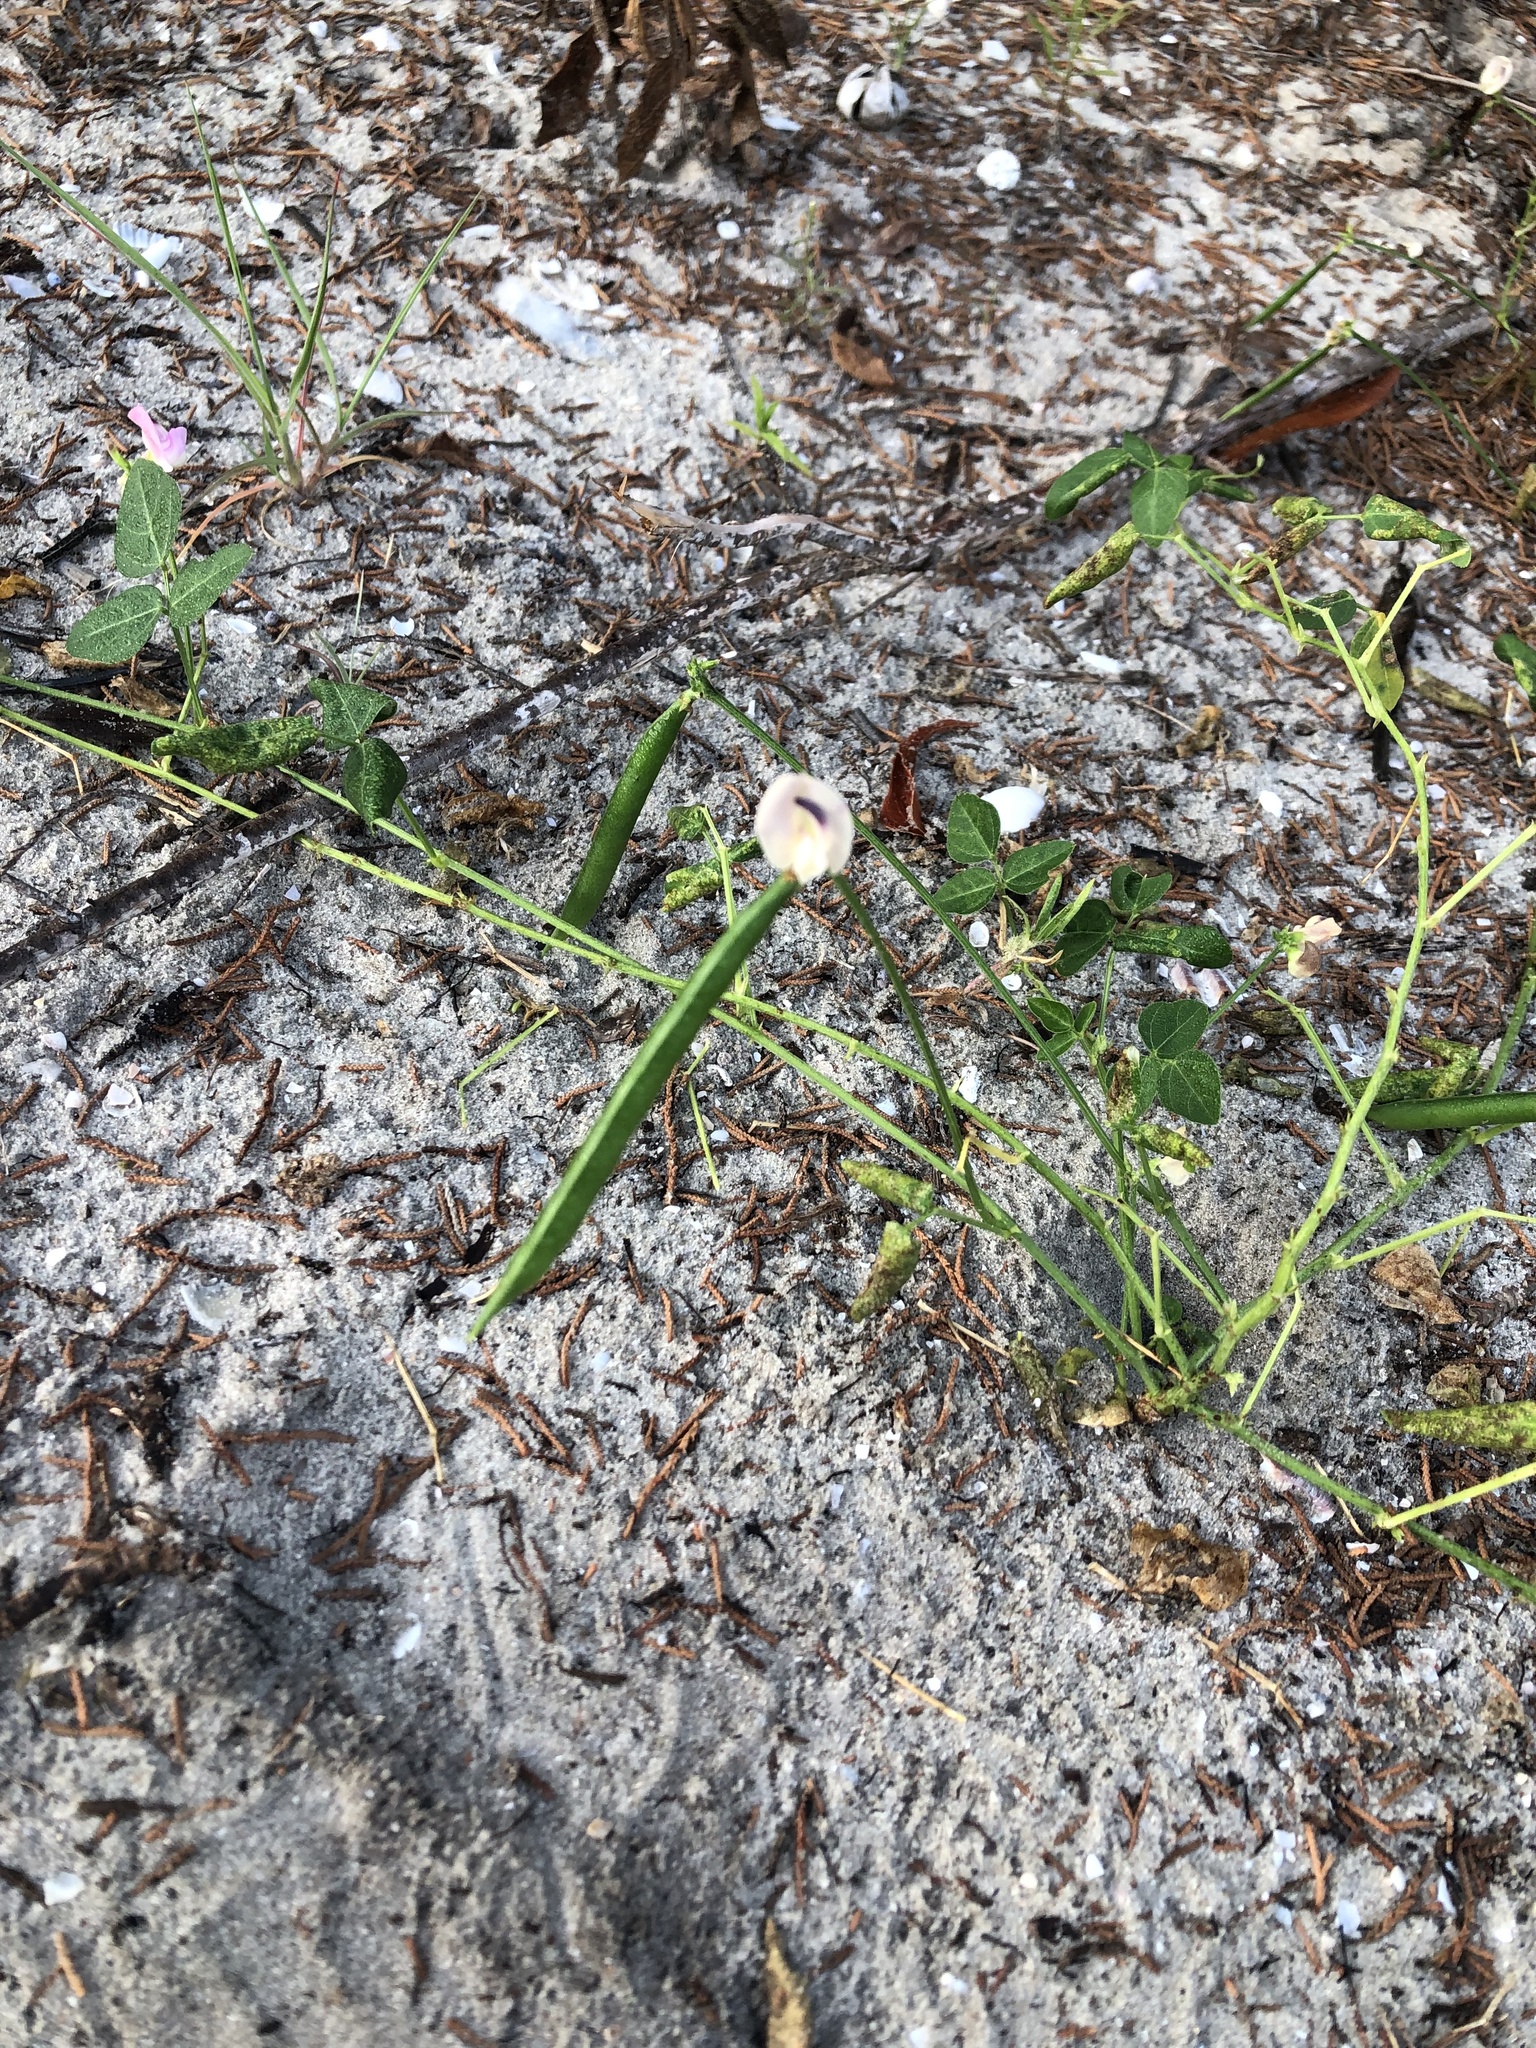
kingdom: Plantae
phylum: Tracheophyta
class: Magnoliopsida
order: Fabales
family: Fabaceae
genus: Strophostyles
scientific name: Strophostyles helvola
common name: Trailing wild bean
